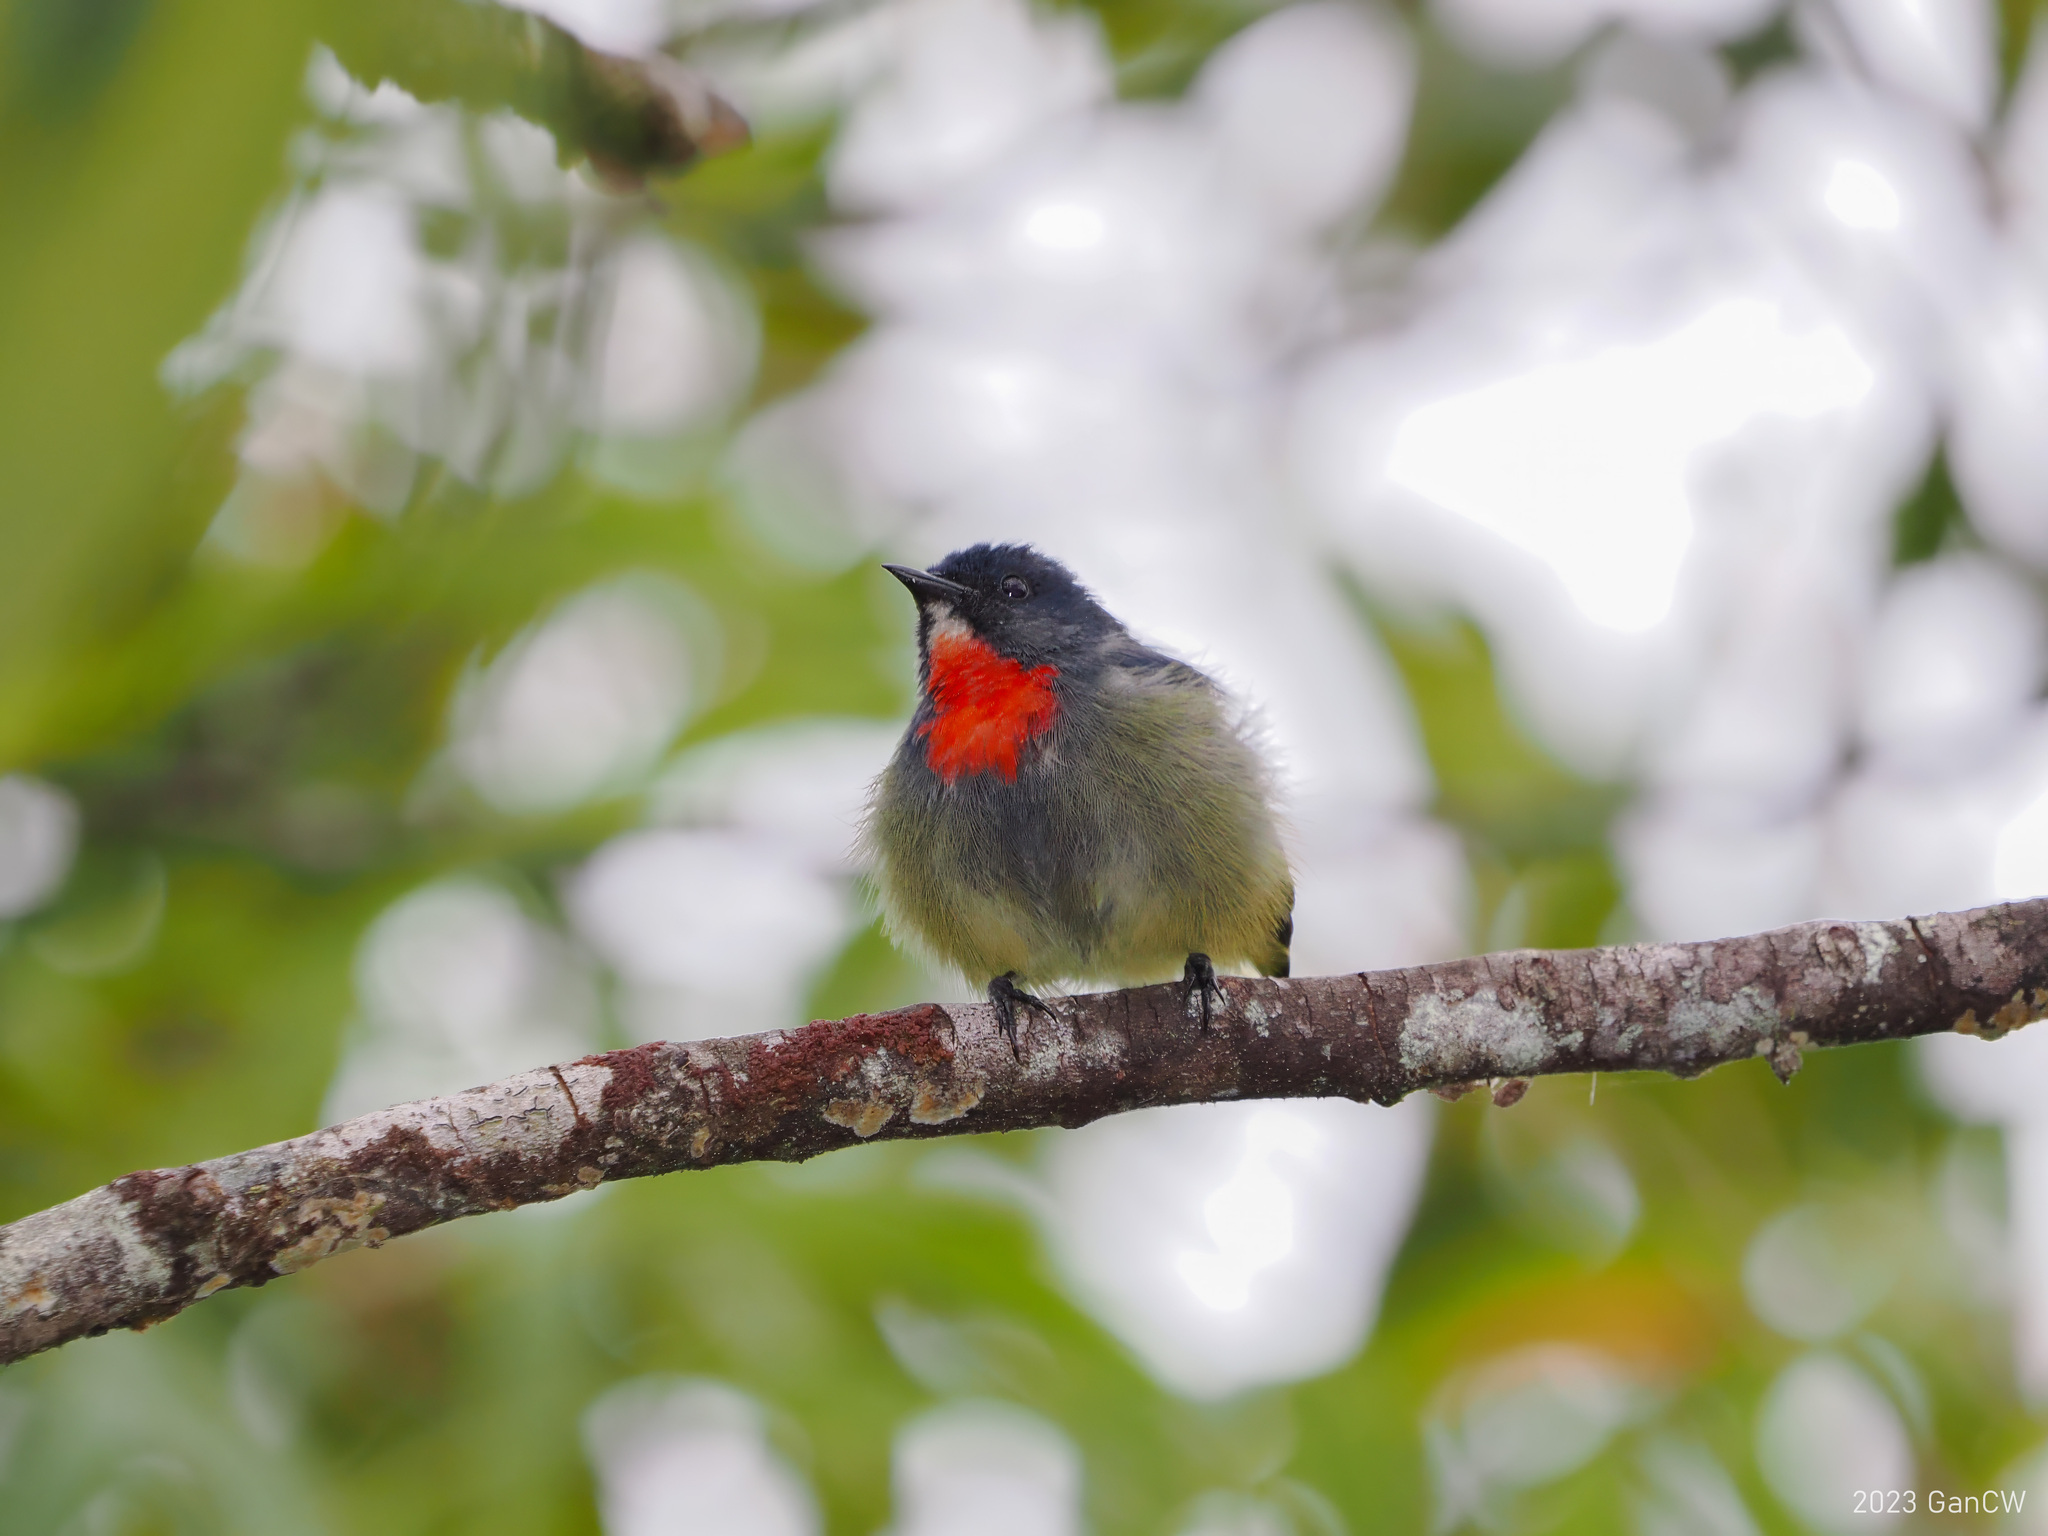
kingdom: Animalia
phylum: Chordata
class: Aves
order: Passeriformes
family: Dicaeidae
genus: Dicaeum
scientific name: Dicaeum monticolum
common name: Black-sided flowerpecker
